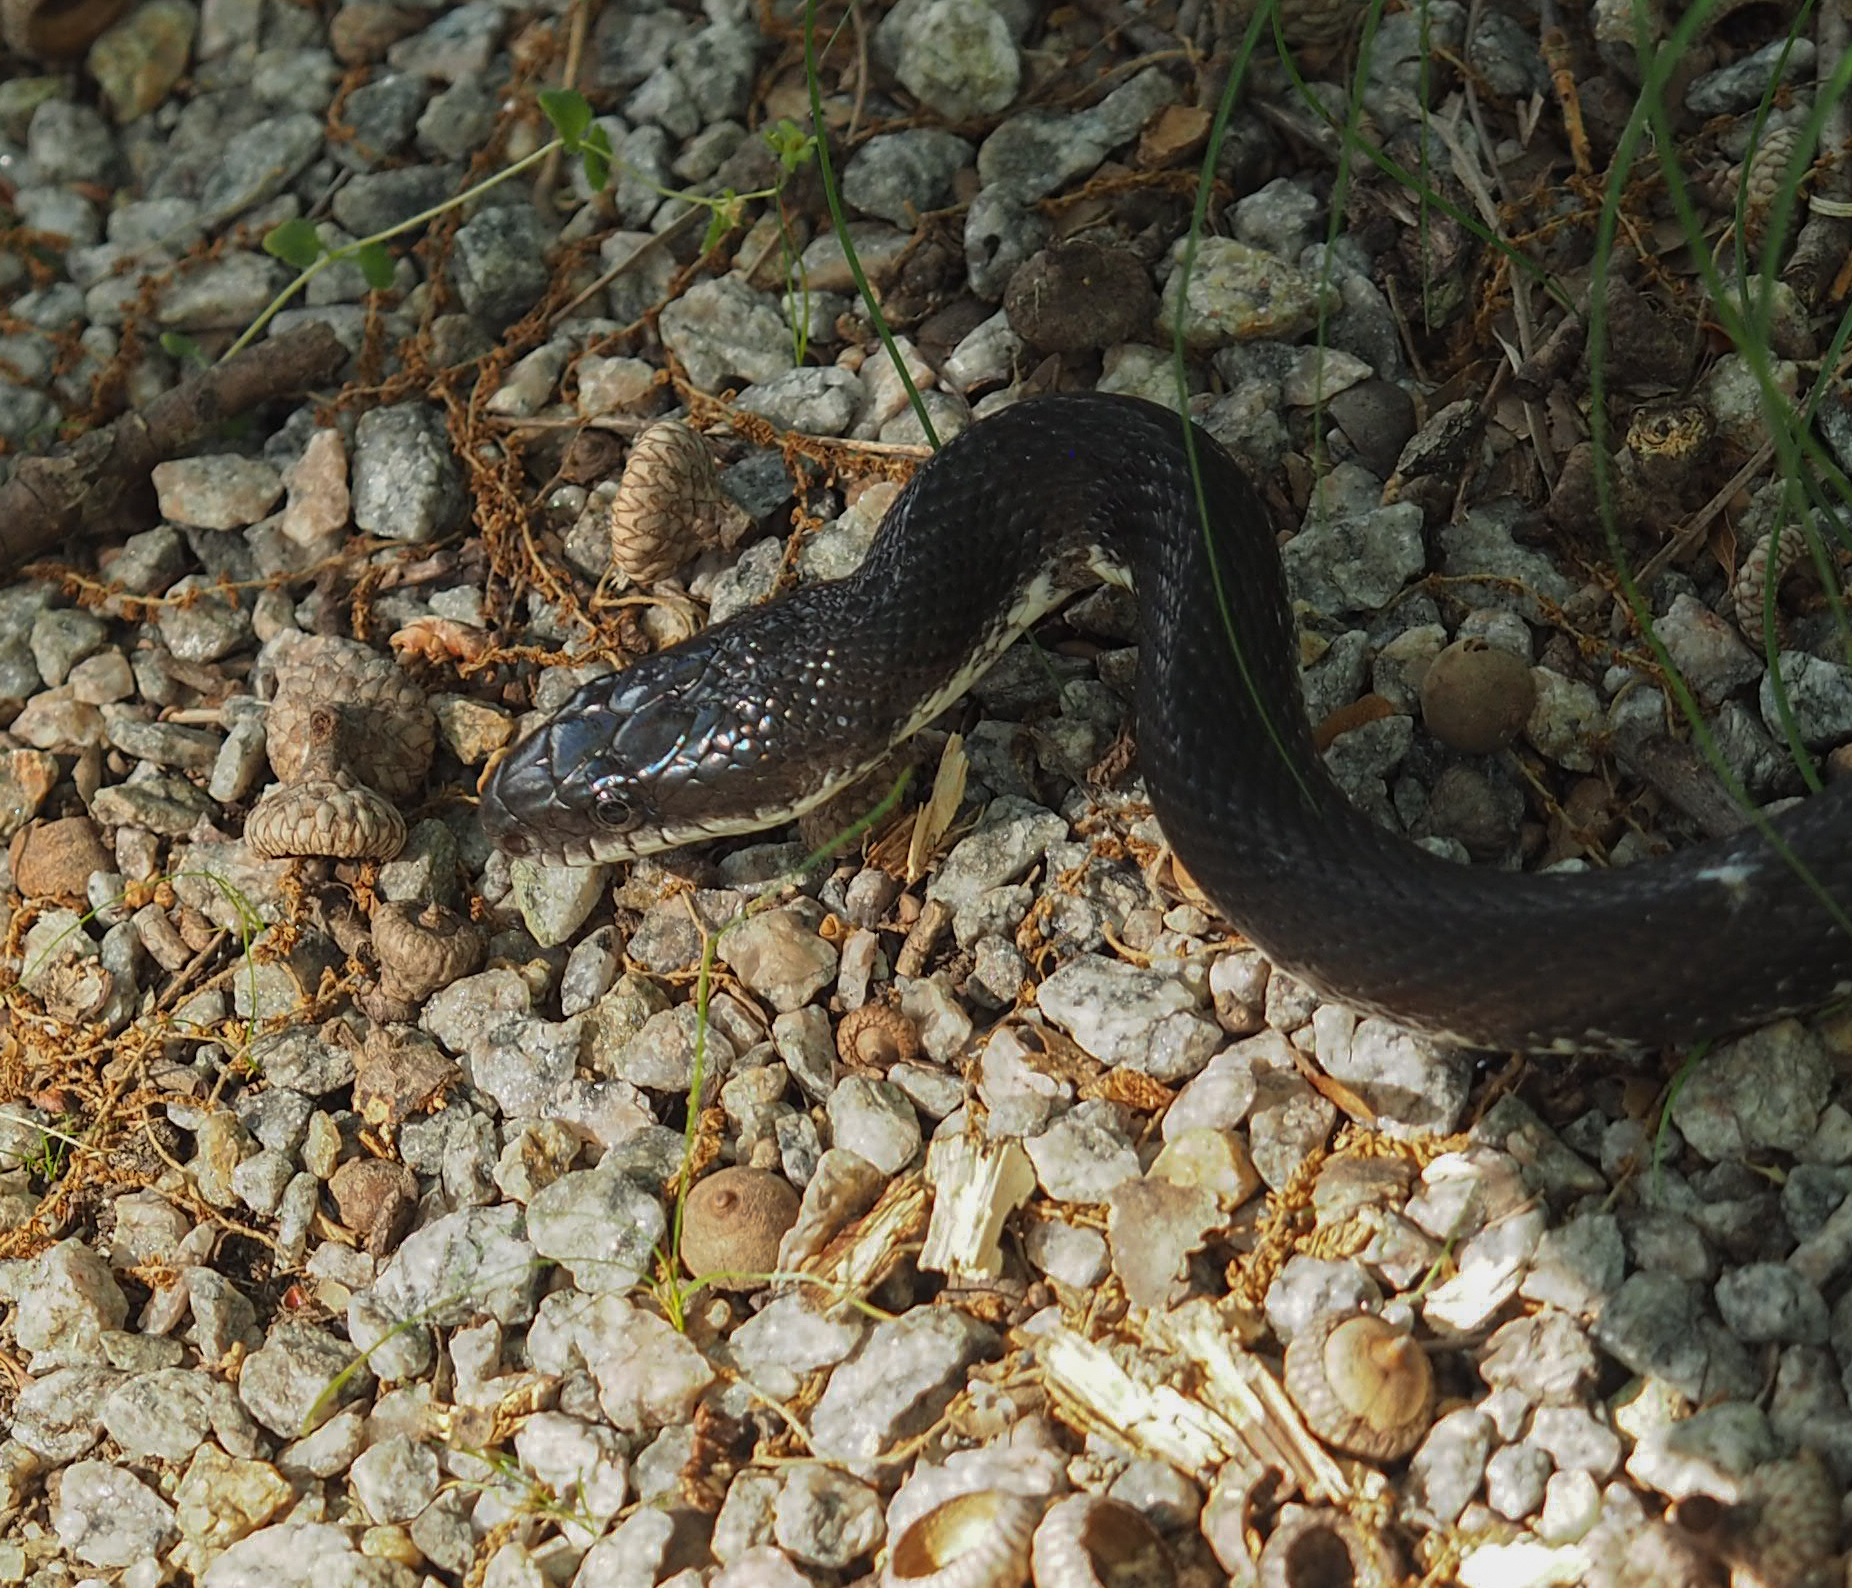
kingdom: Animalia
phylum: Chordata
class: Squamata
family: Colubridae
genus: Pantherophis
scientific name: Pantherophis alleghaniensis
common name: Eastern rat snake
